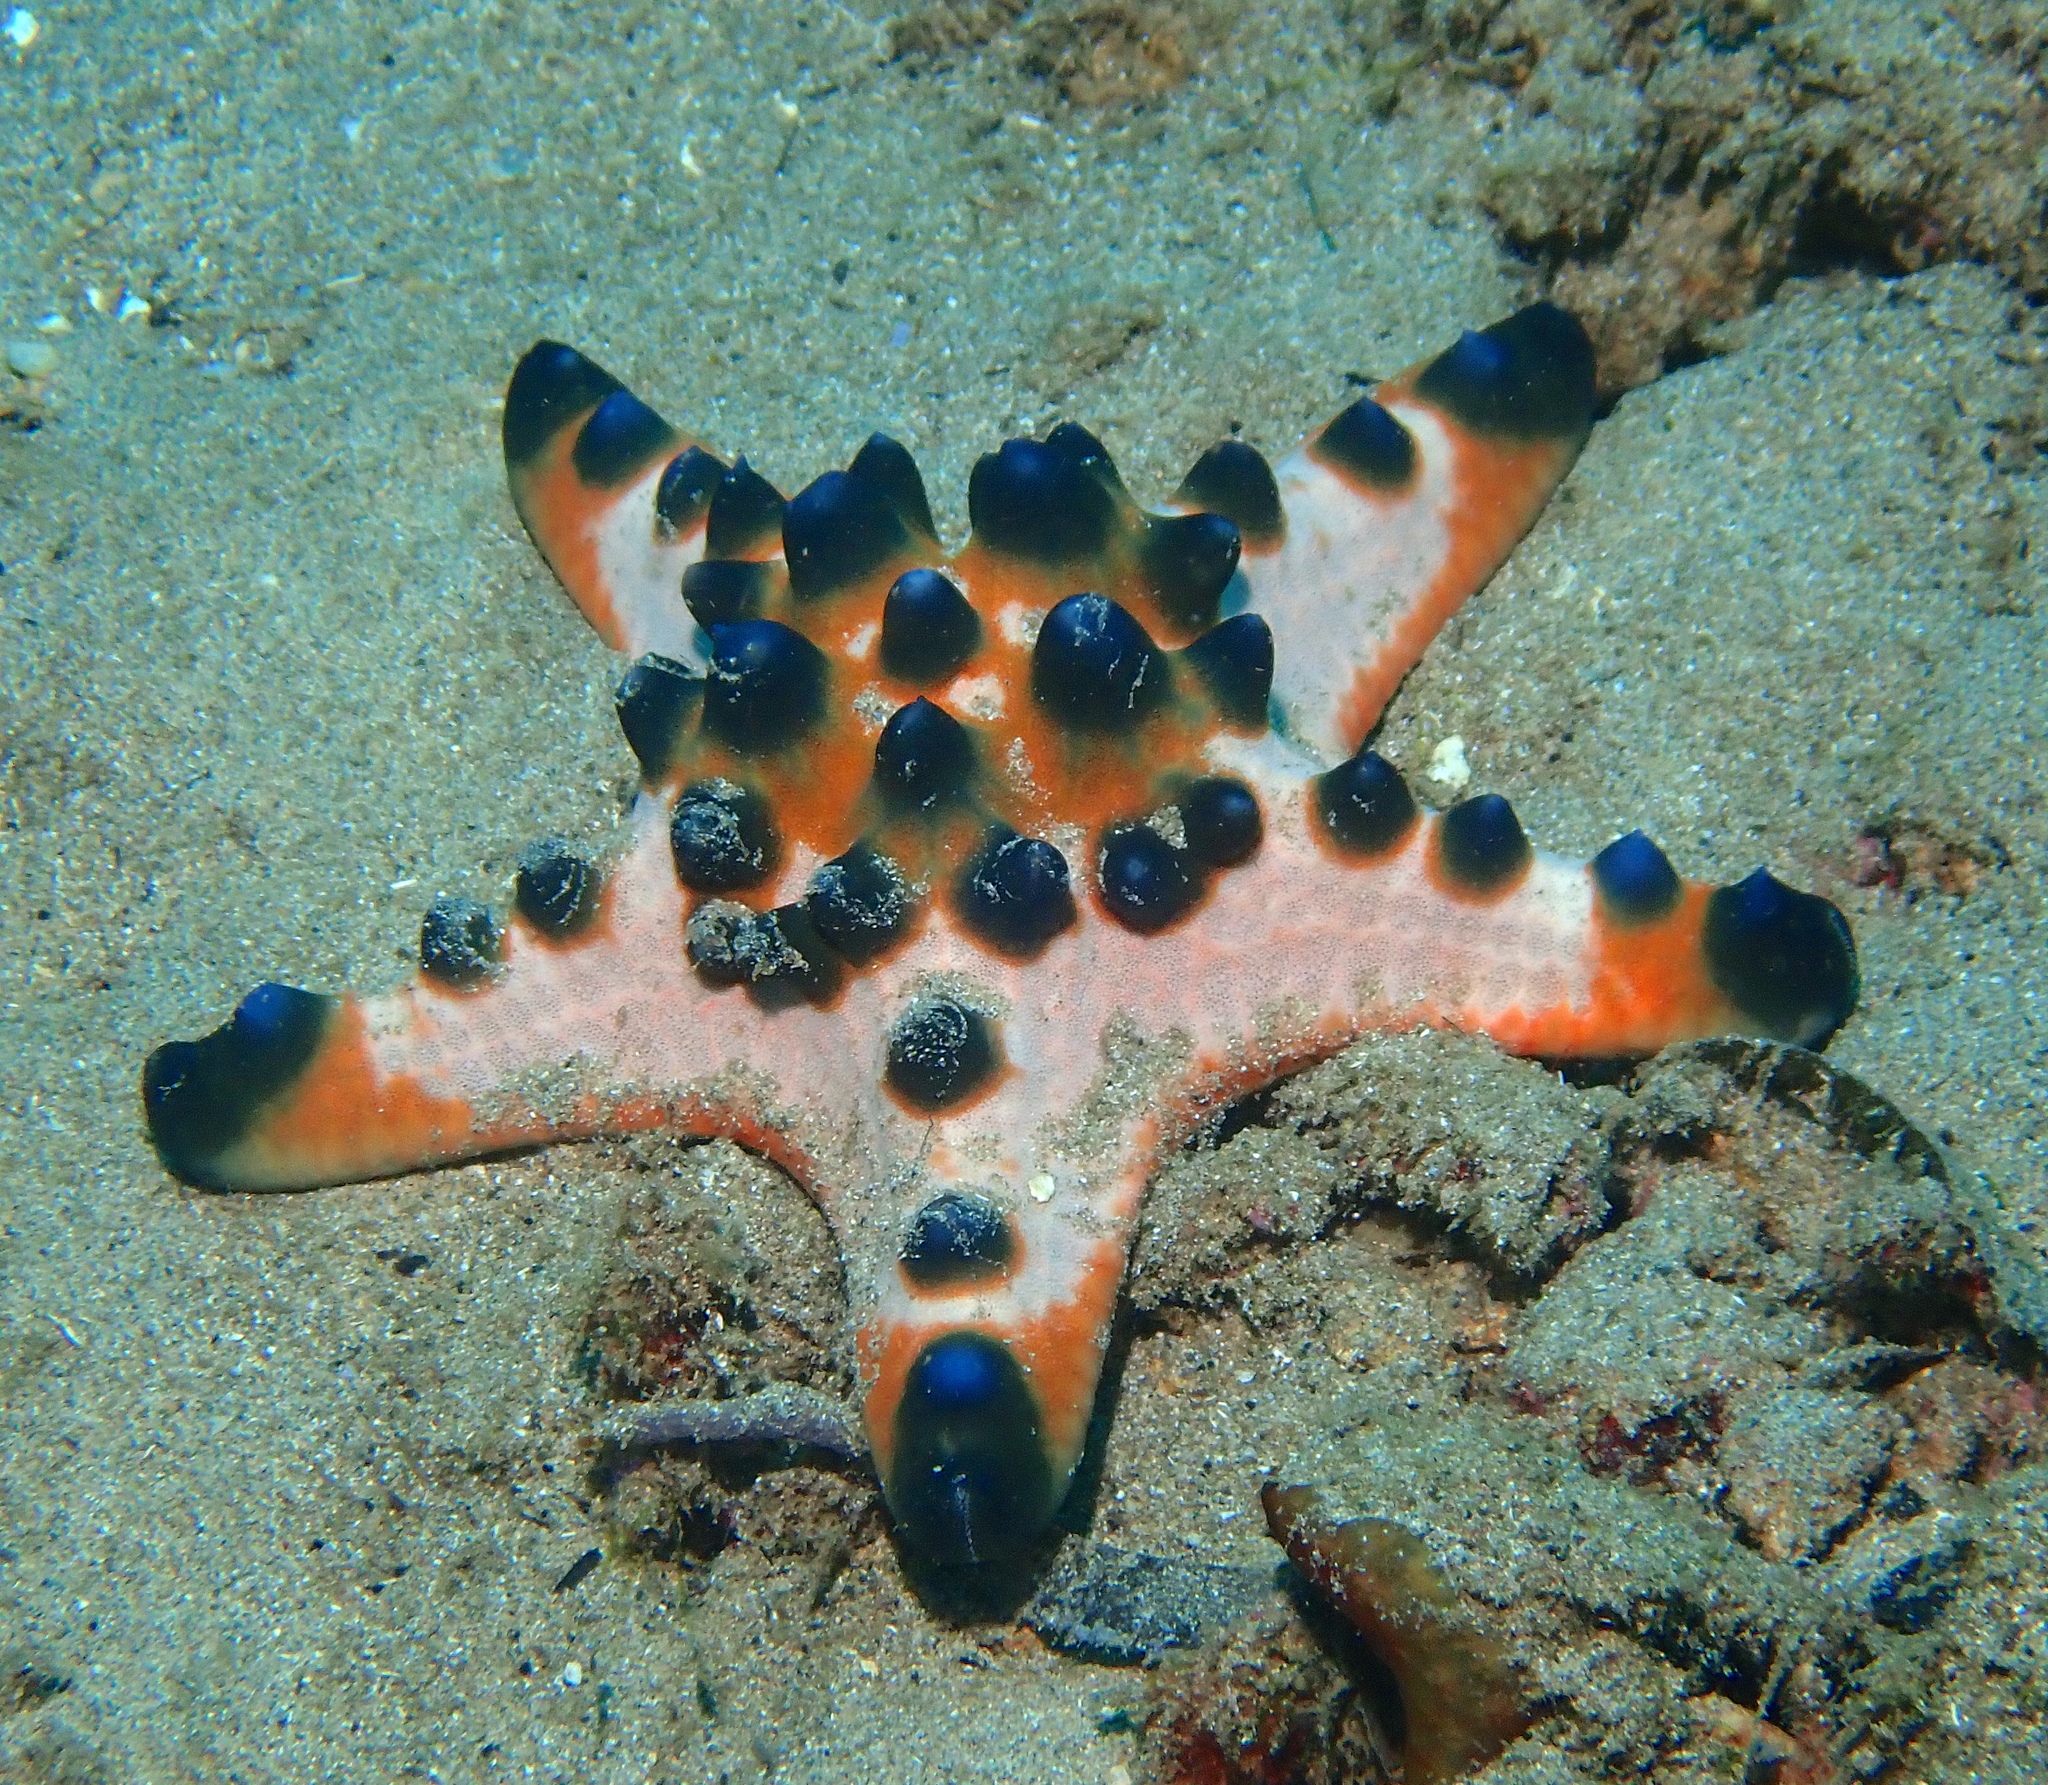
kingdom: Animalia
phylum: Echinodermata
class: Asteroidea
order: Valvatida
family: Oreasteridae
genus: Protoreaster
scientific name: Protoreaster nodosus
